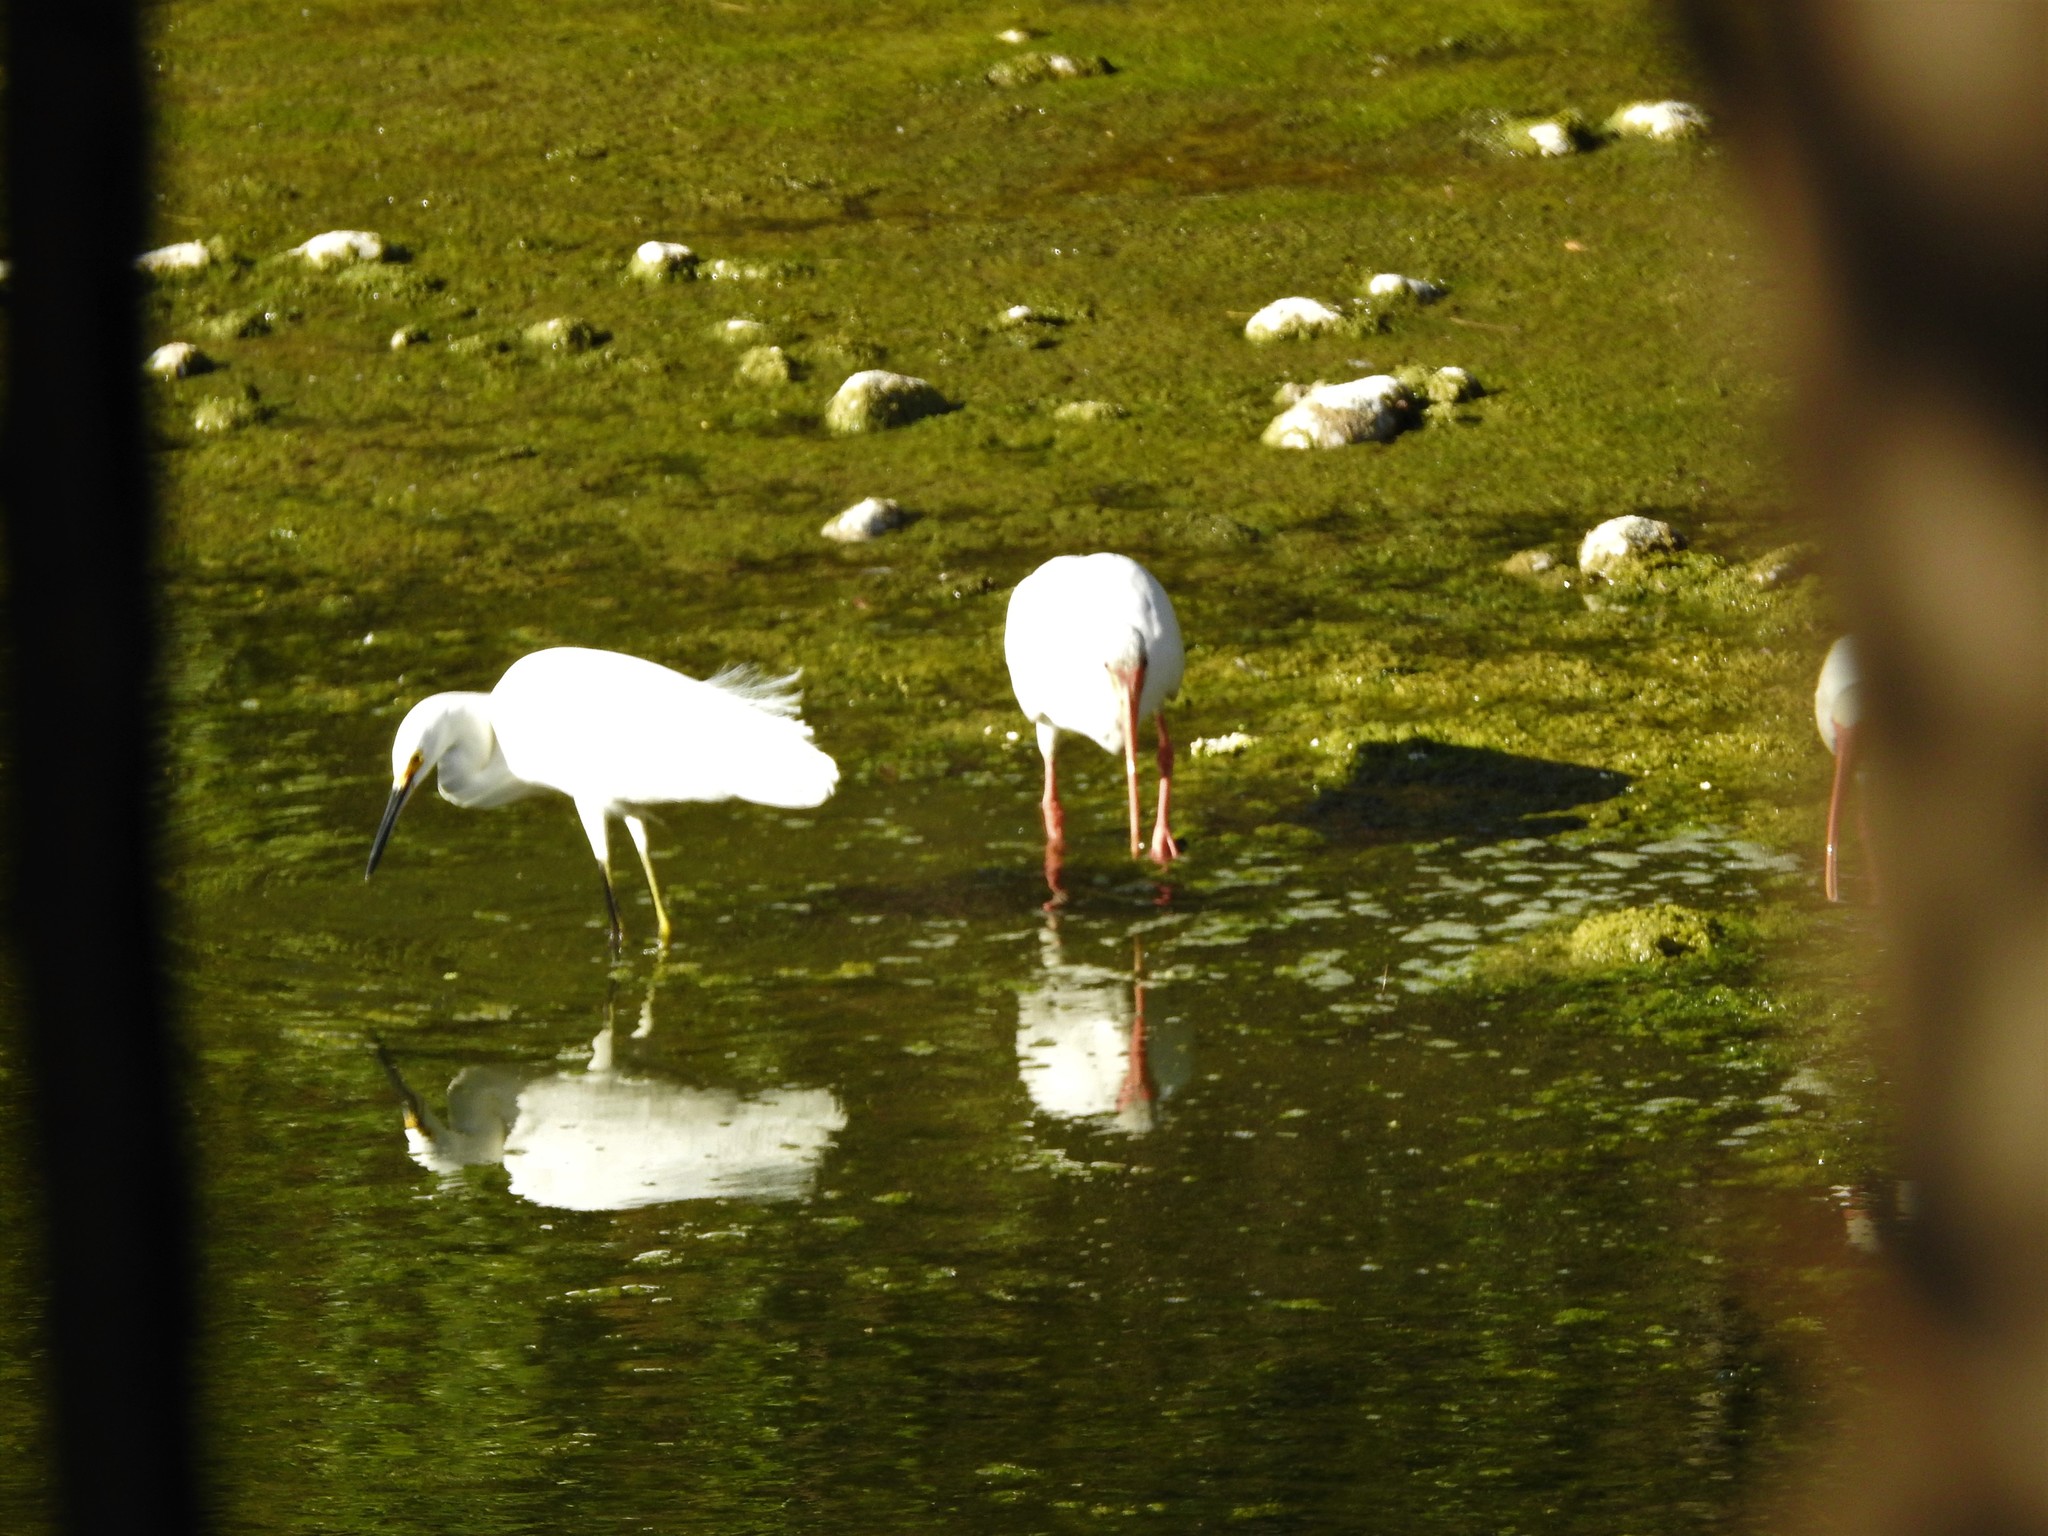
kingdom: Animalia
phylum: Chordata
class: Aves
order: Pelecaniformes
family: Ardeidae
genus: Egretta
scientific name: Egretta thula
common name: Snowy egret
